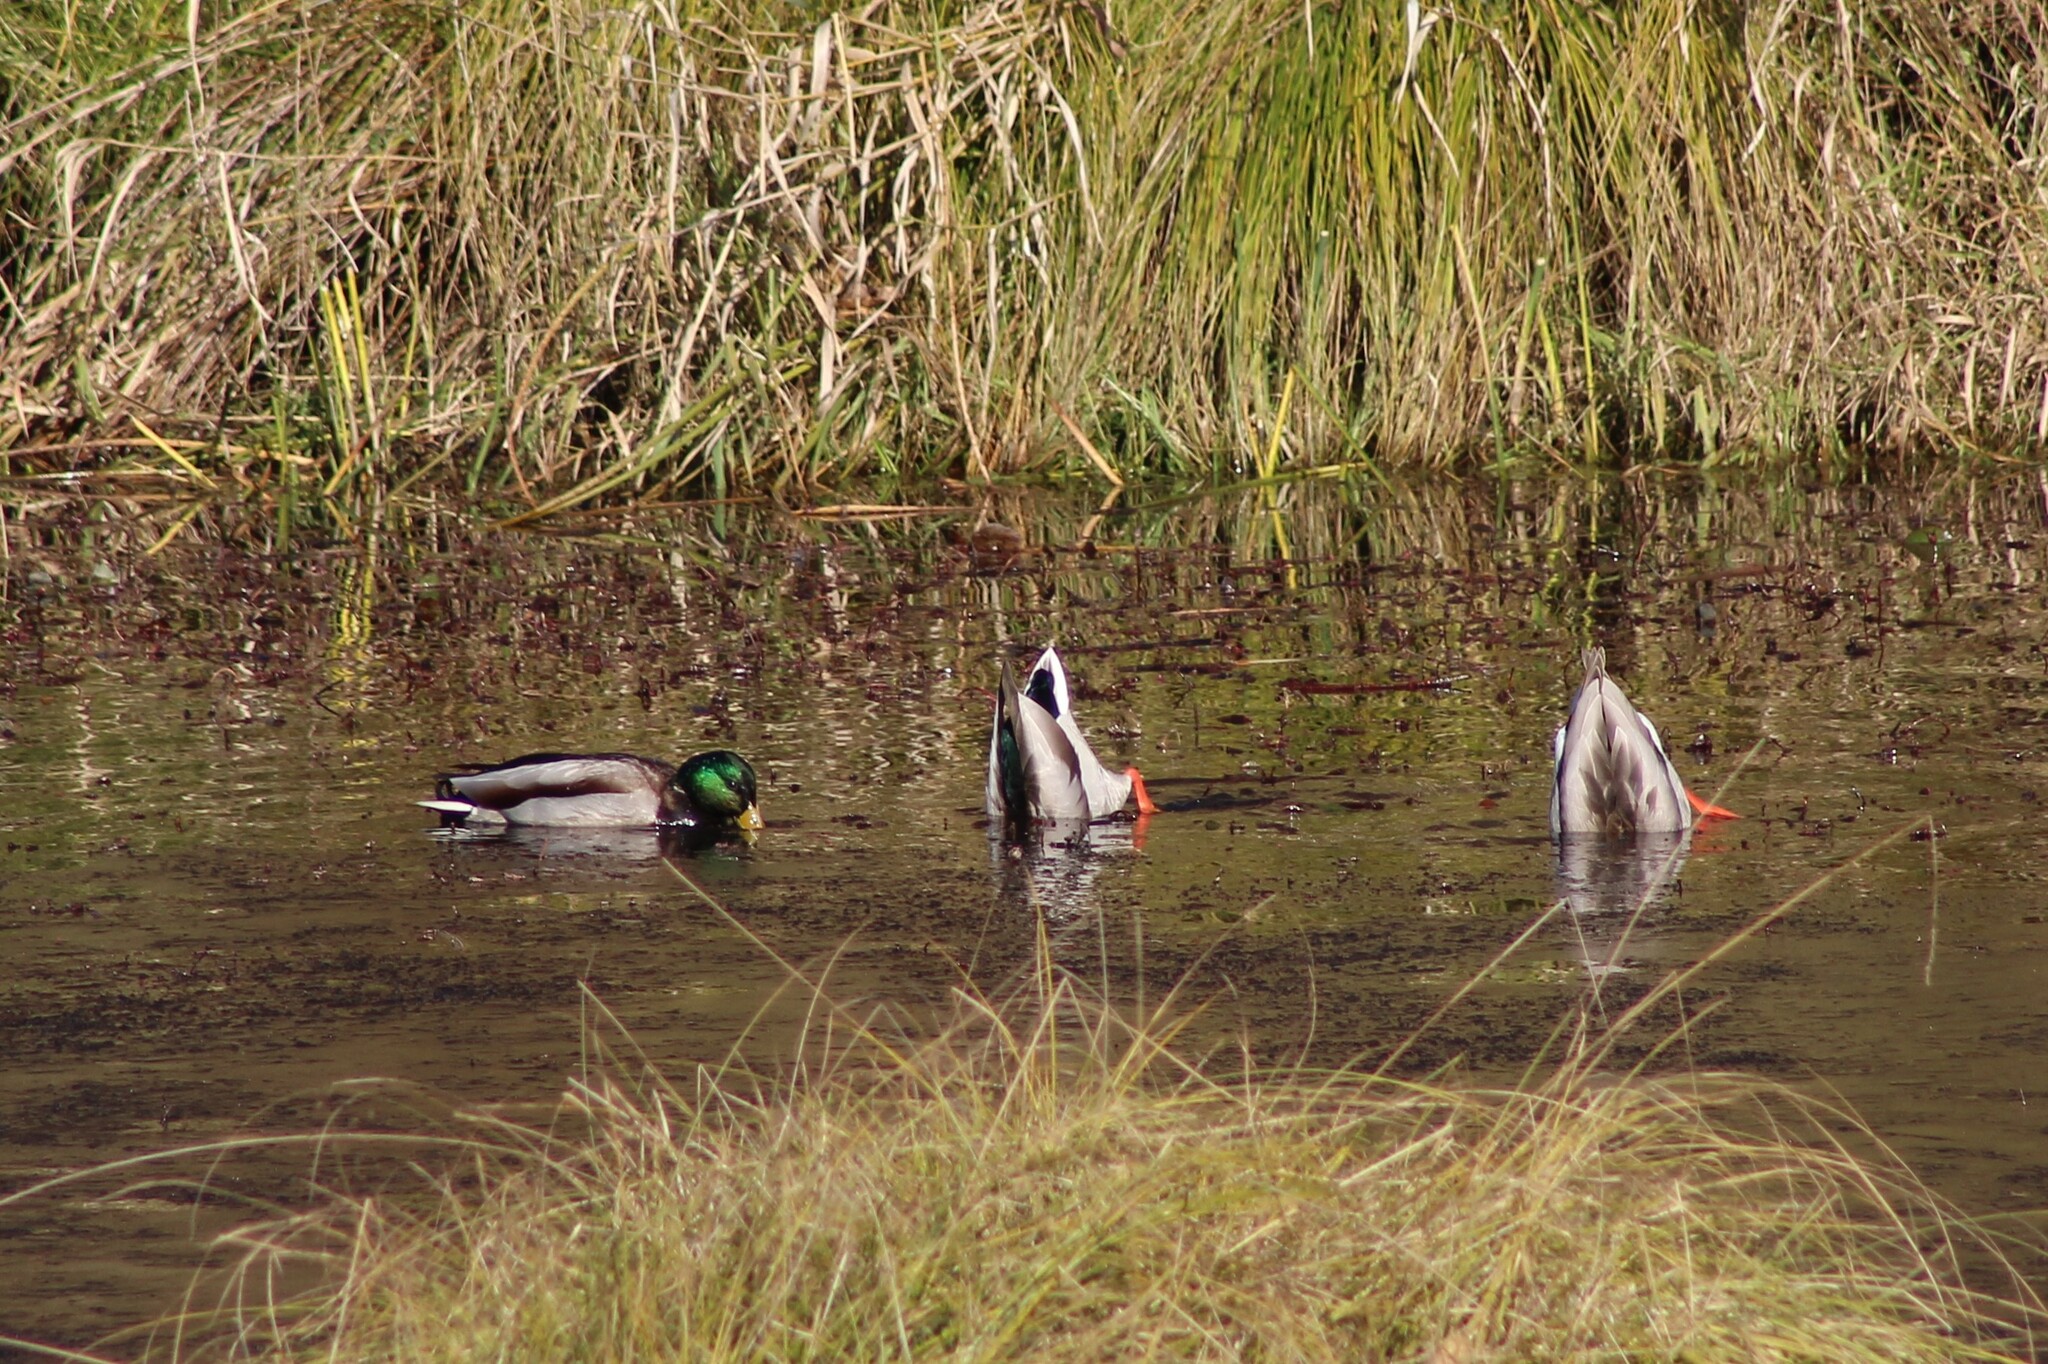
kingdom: Animalia
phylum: Chordata
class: Aves
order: Anseriformes
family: Anatidae
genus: Anas
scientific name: Anas platyrhynchos
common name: Mallard
